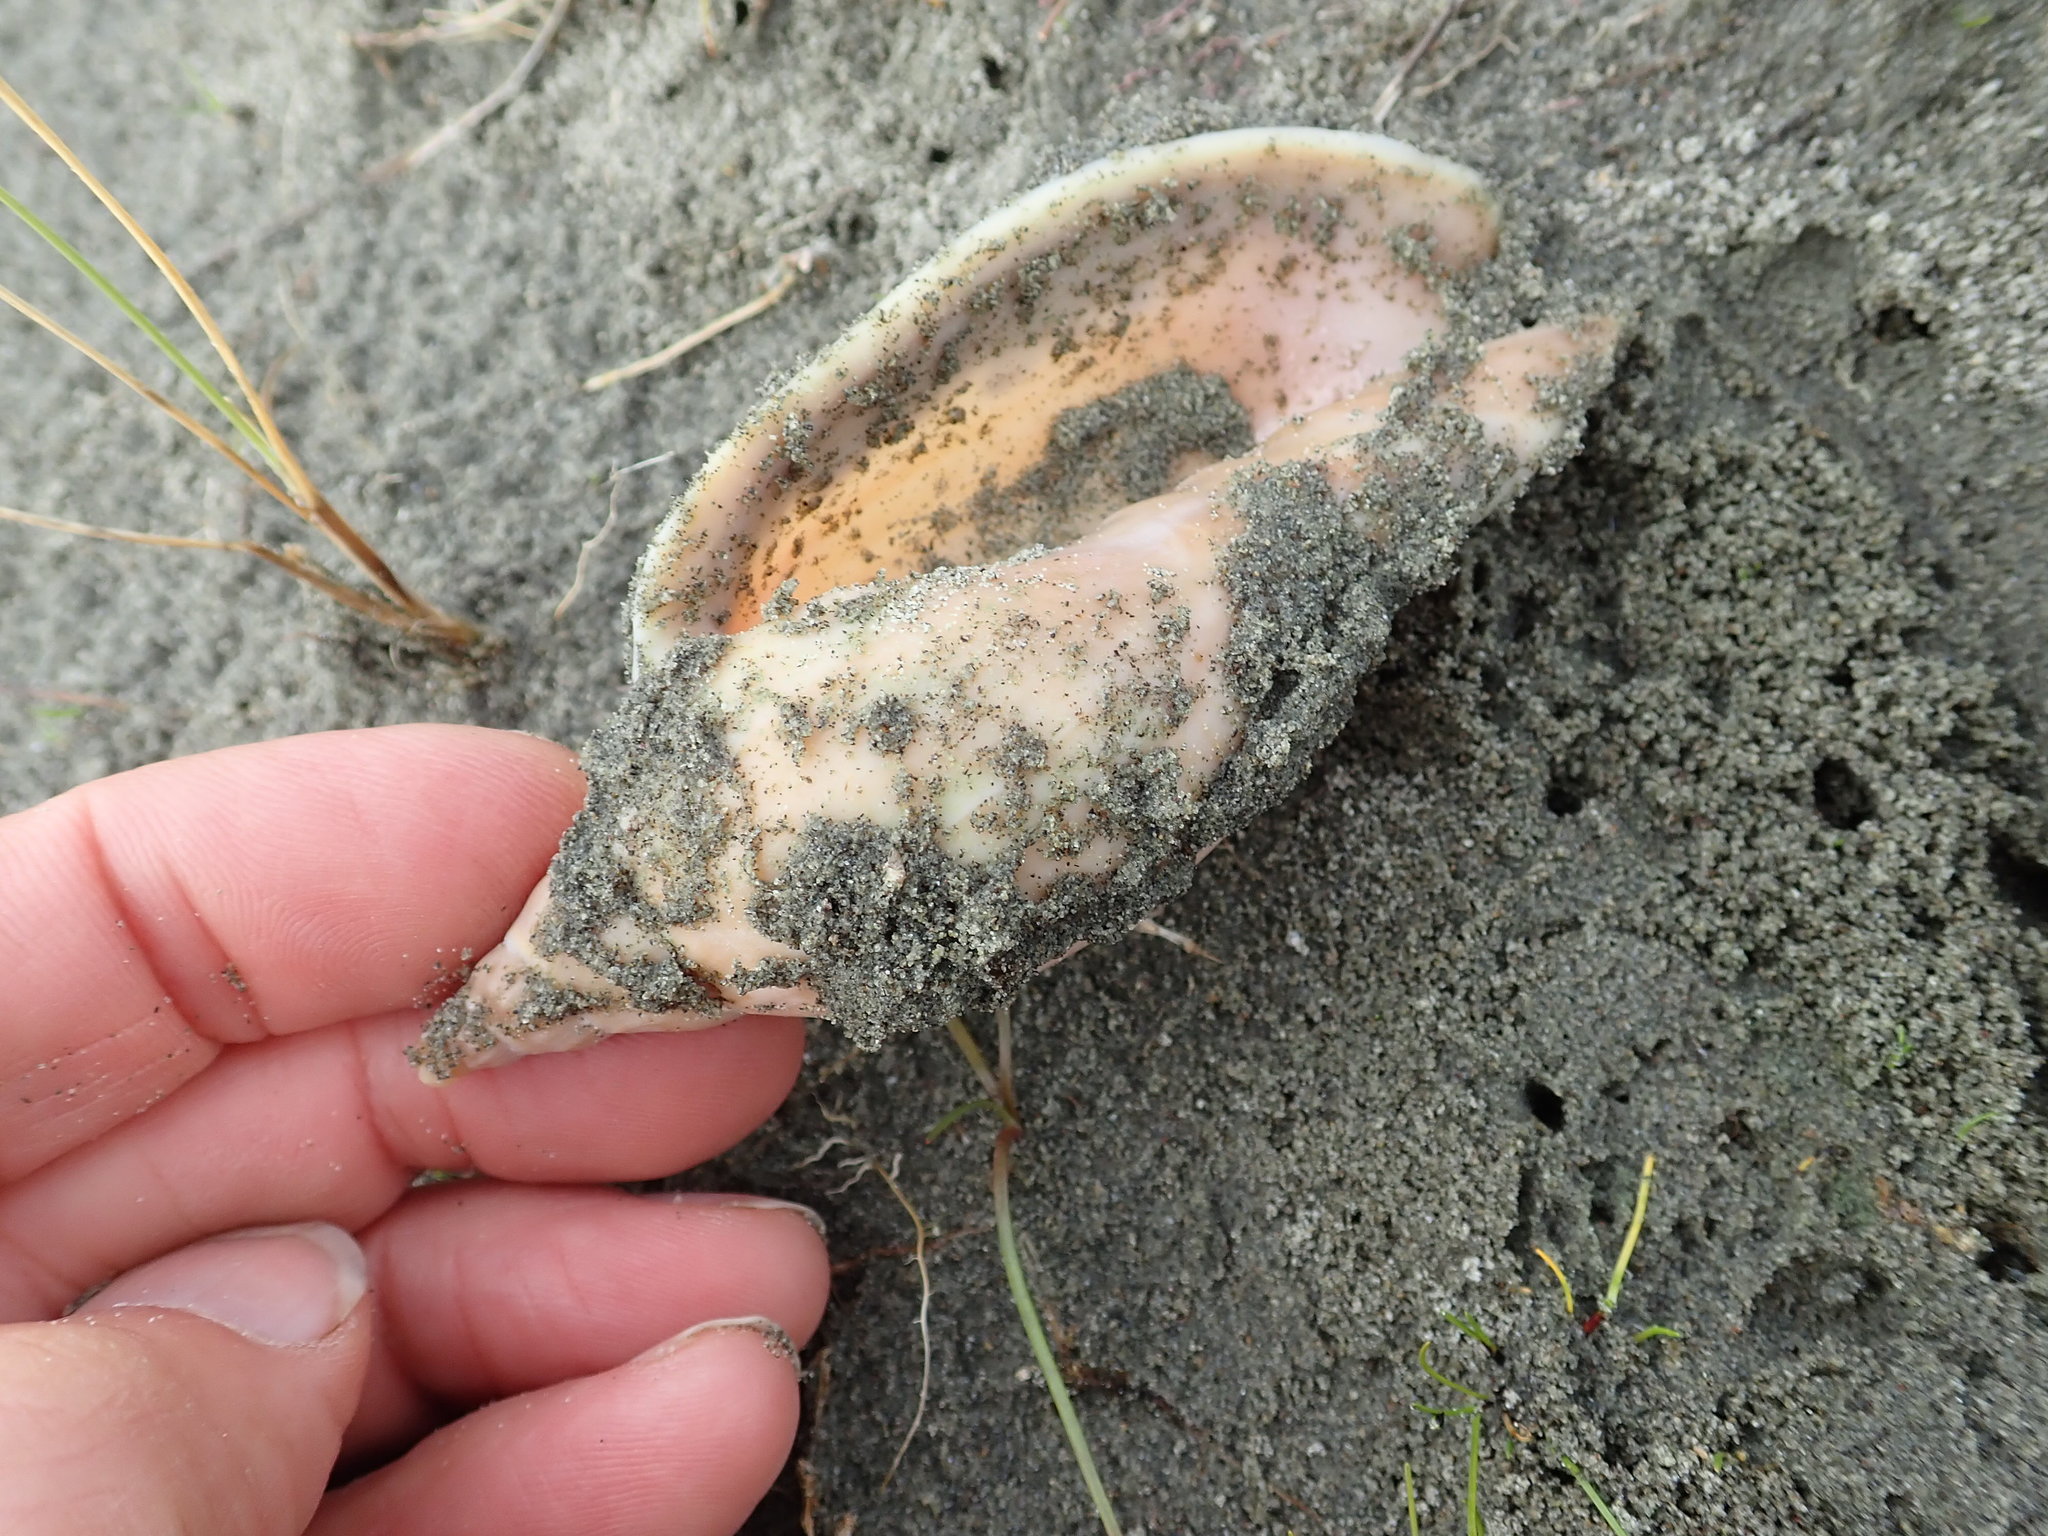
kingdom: Animalia
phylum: Mollusca
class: Gastropoda
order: Neogastropoda
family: Volutidae
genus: Alcithoe
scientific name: Alcithoe arabica
